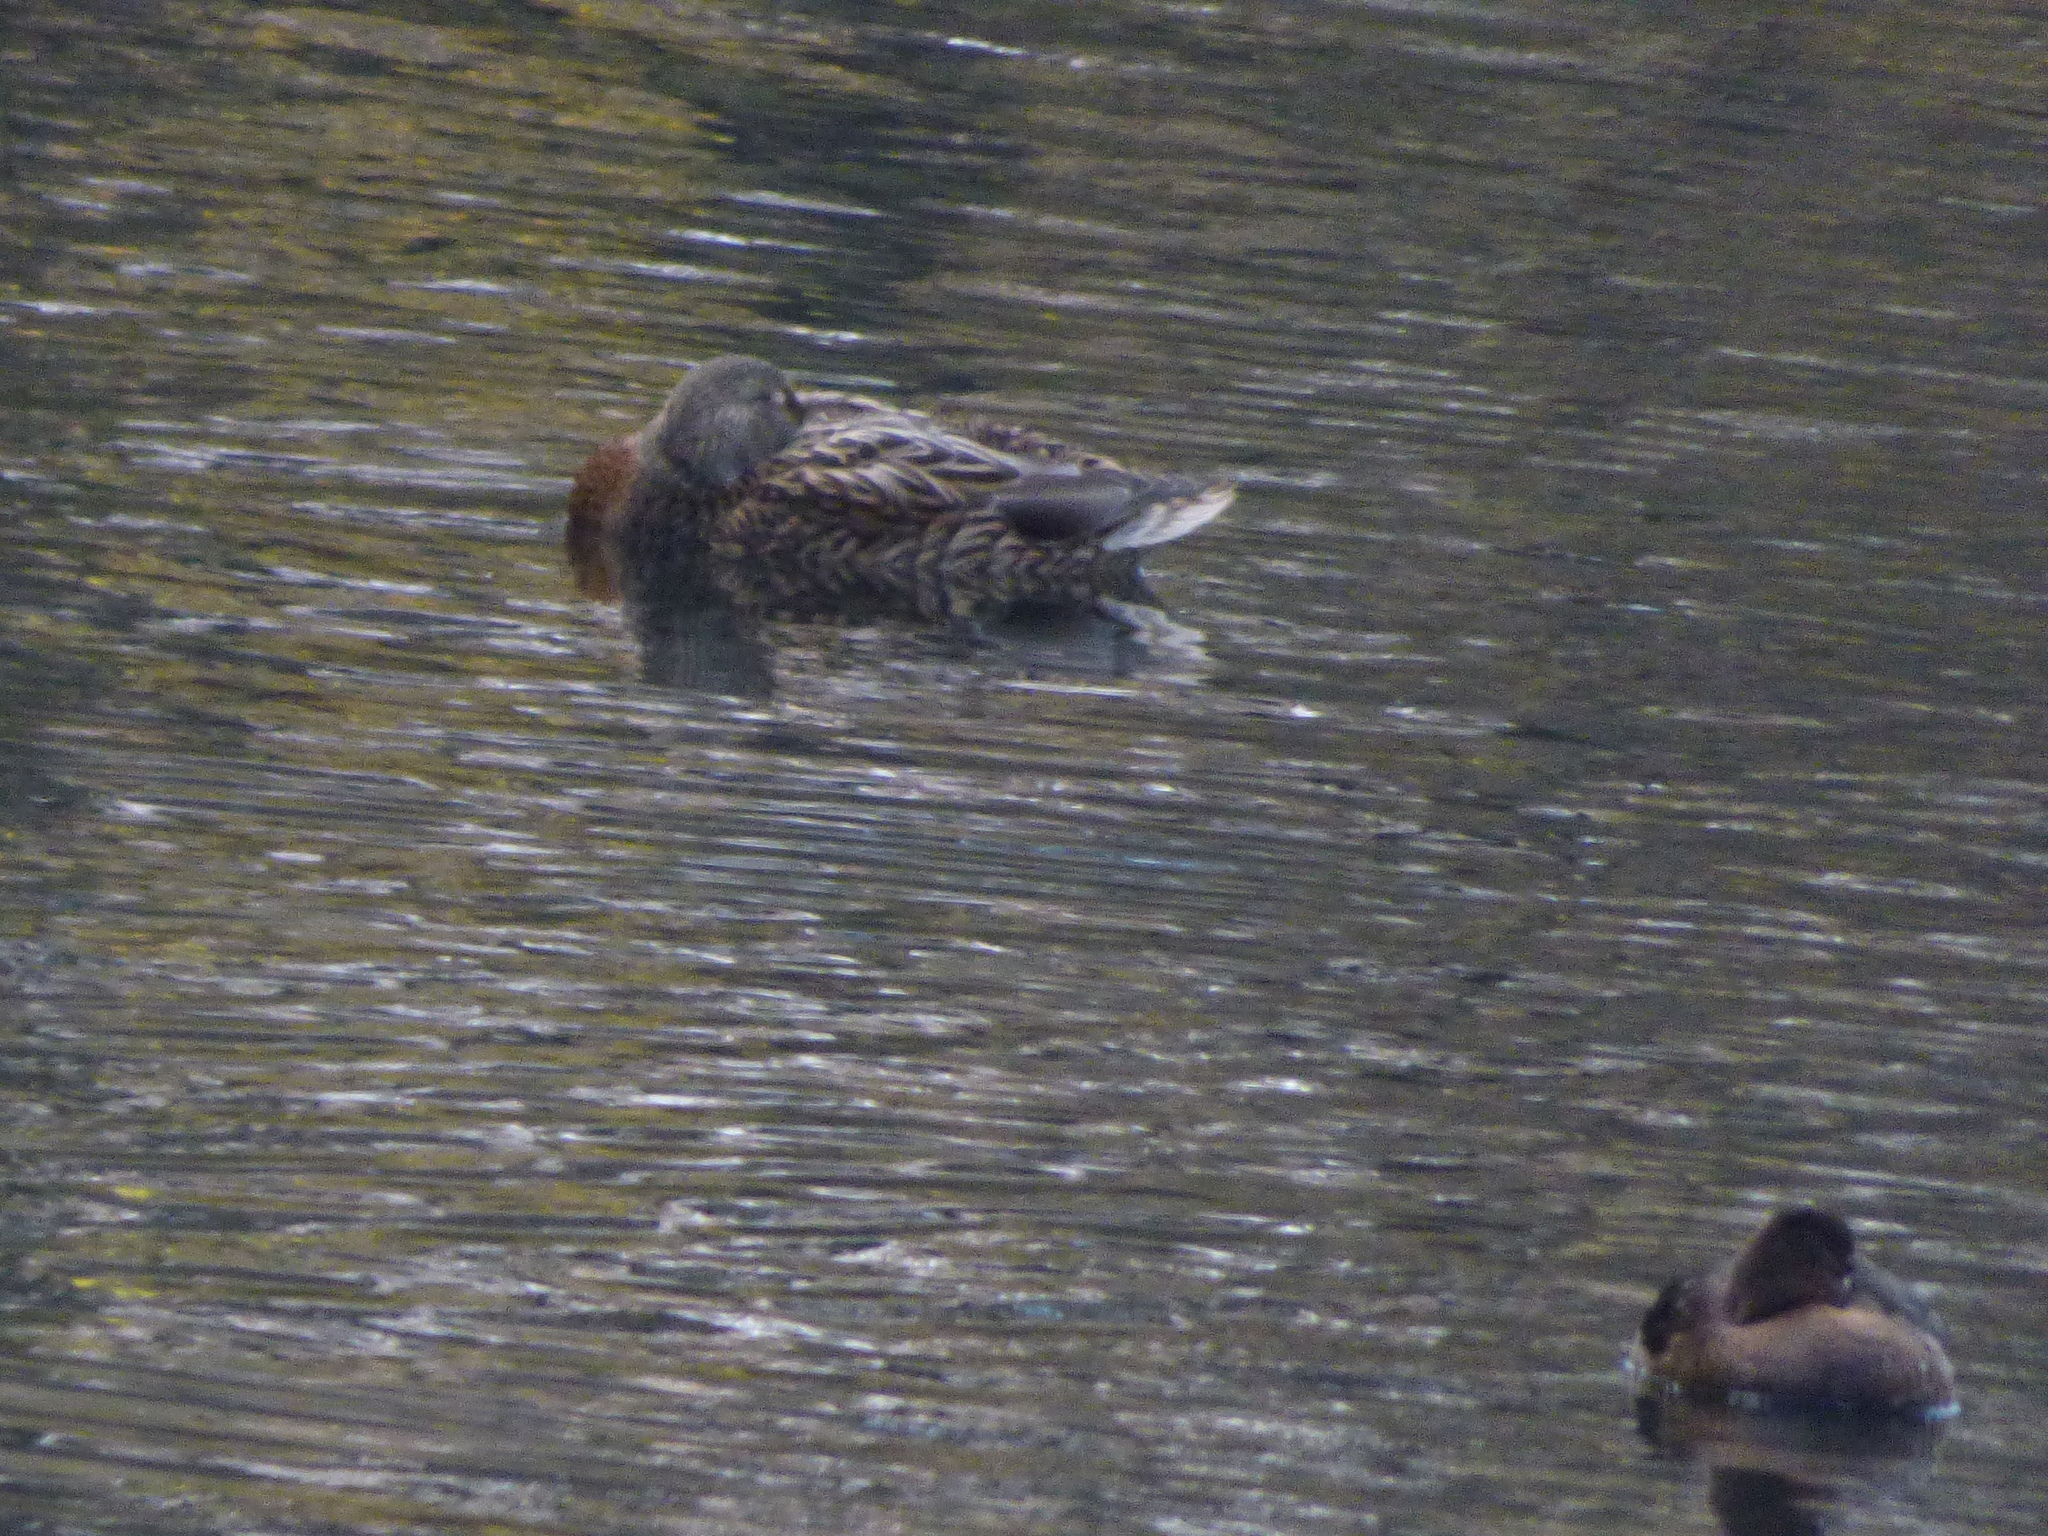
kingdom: Animalia
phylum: Chordata
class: Aves
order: Anseriformes
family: Anatidae
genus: Anas
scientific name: Anas platyrhynchos
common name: Mallard
